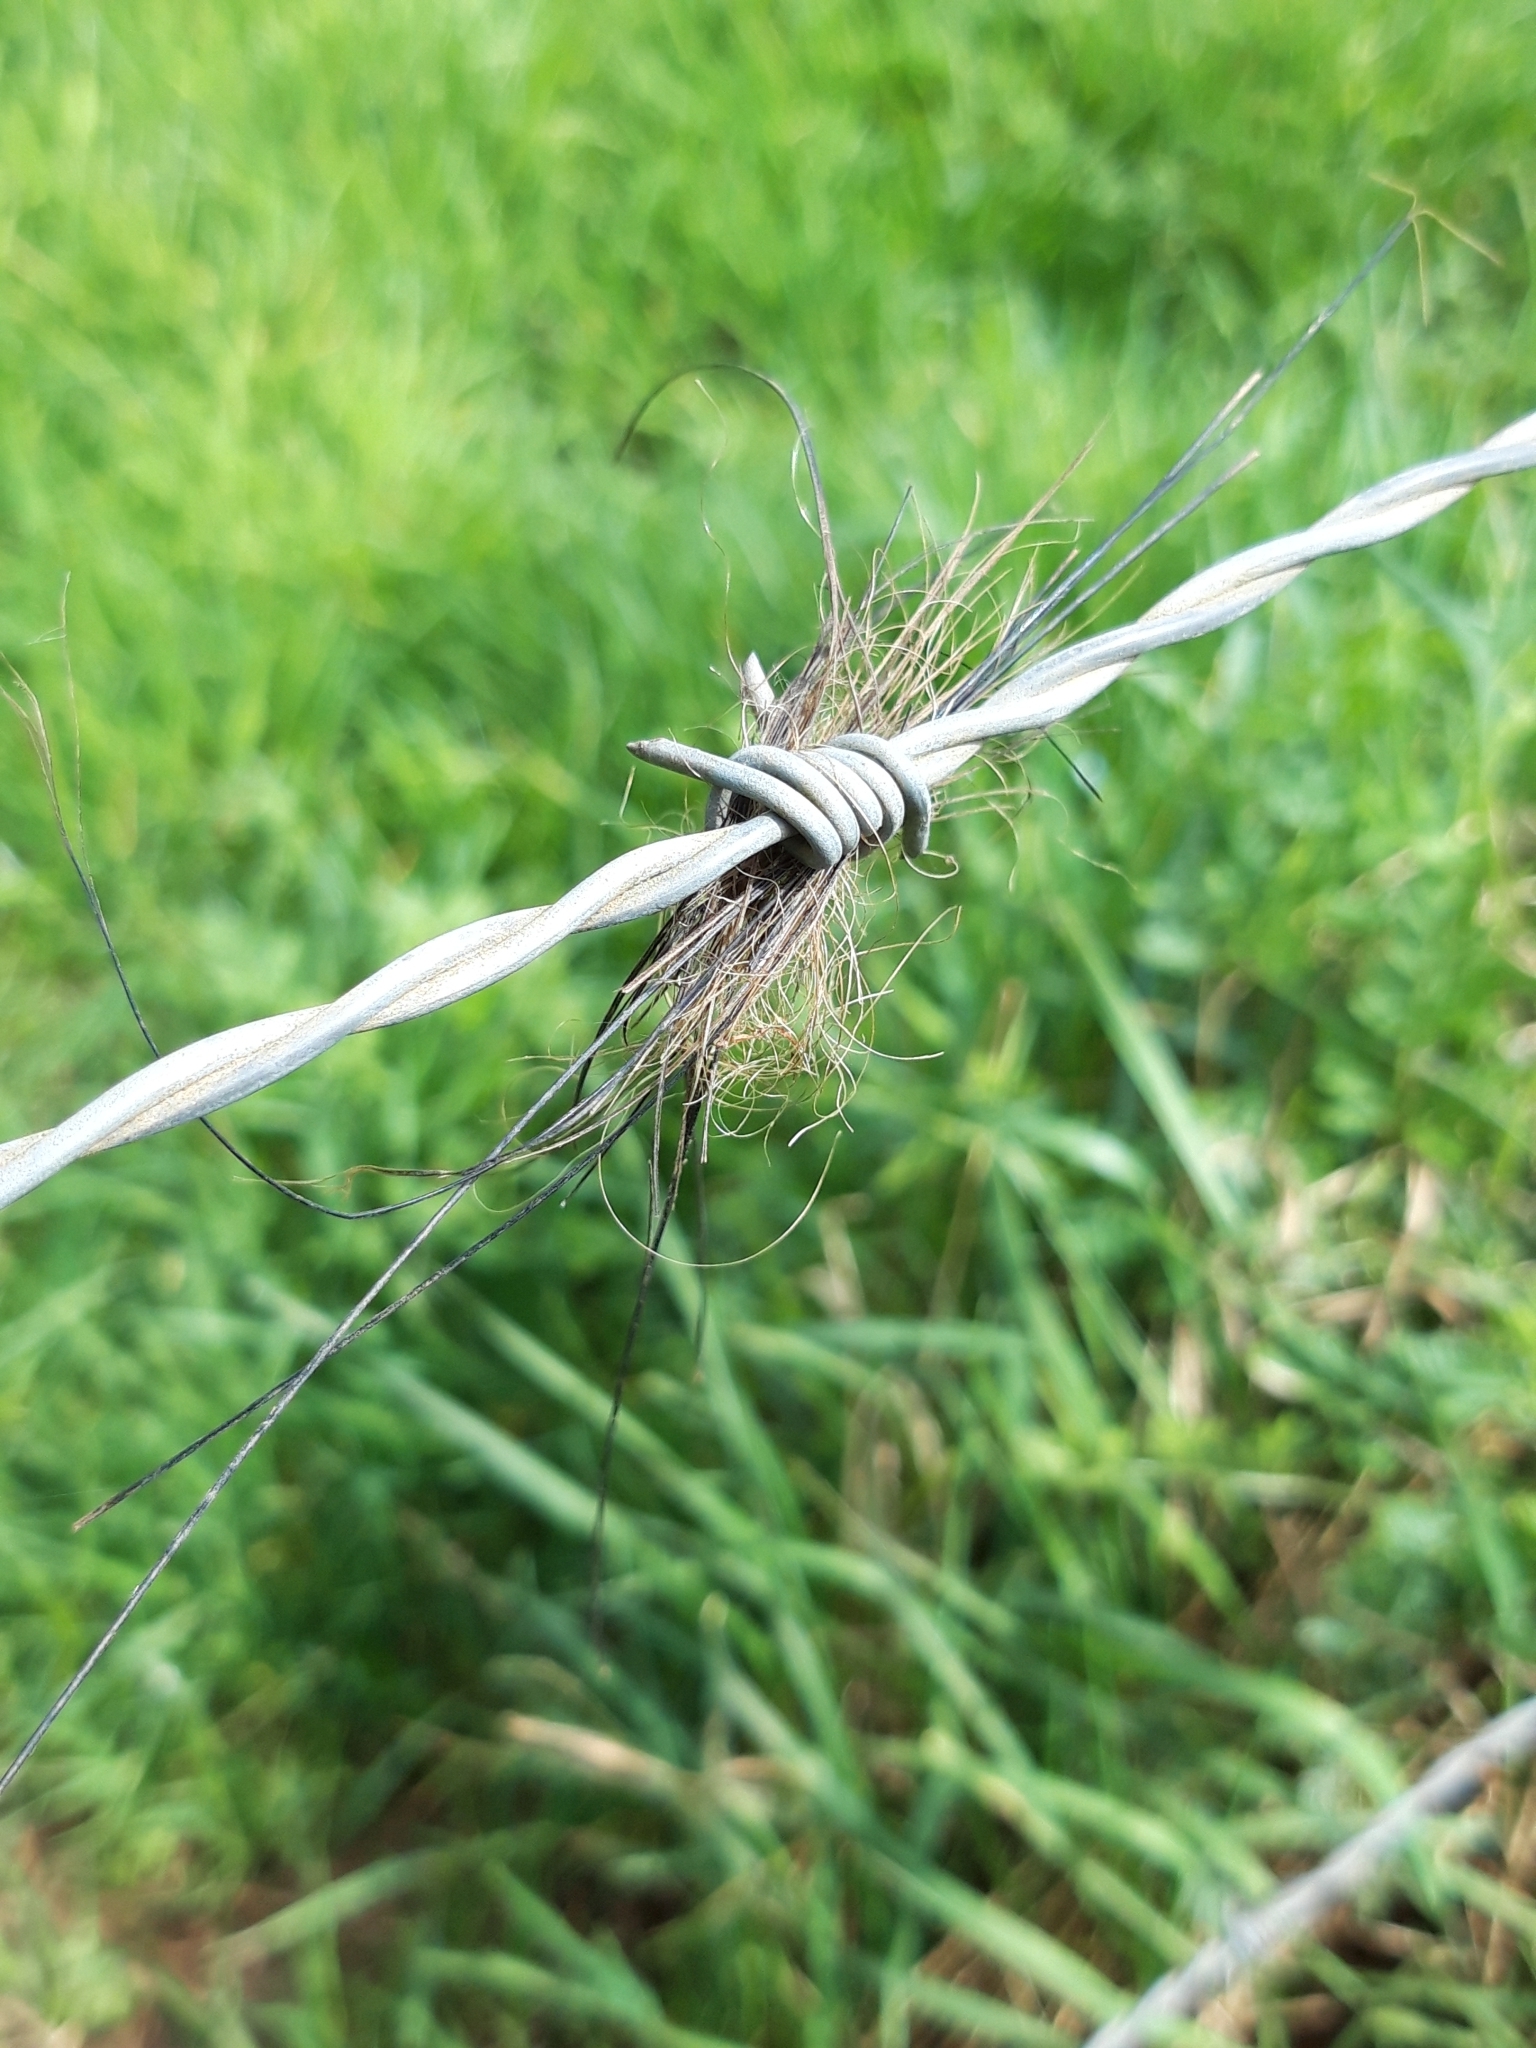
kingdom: Animalia
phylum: Chordata
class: Mammalia
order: Artiodactyla
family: Suidae
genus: Sus
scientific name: Sus scrofa
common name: Wild boar
